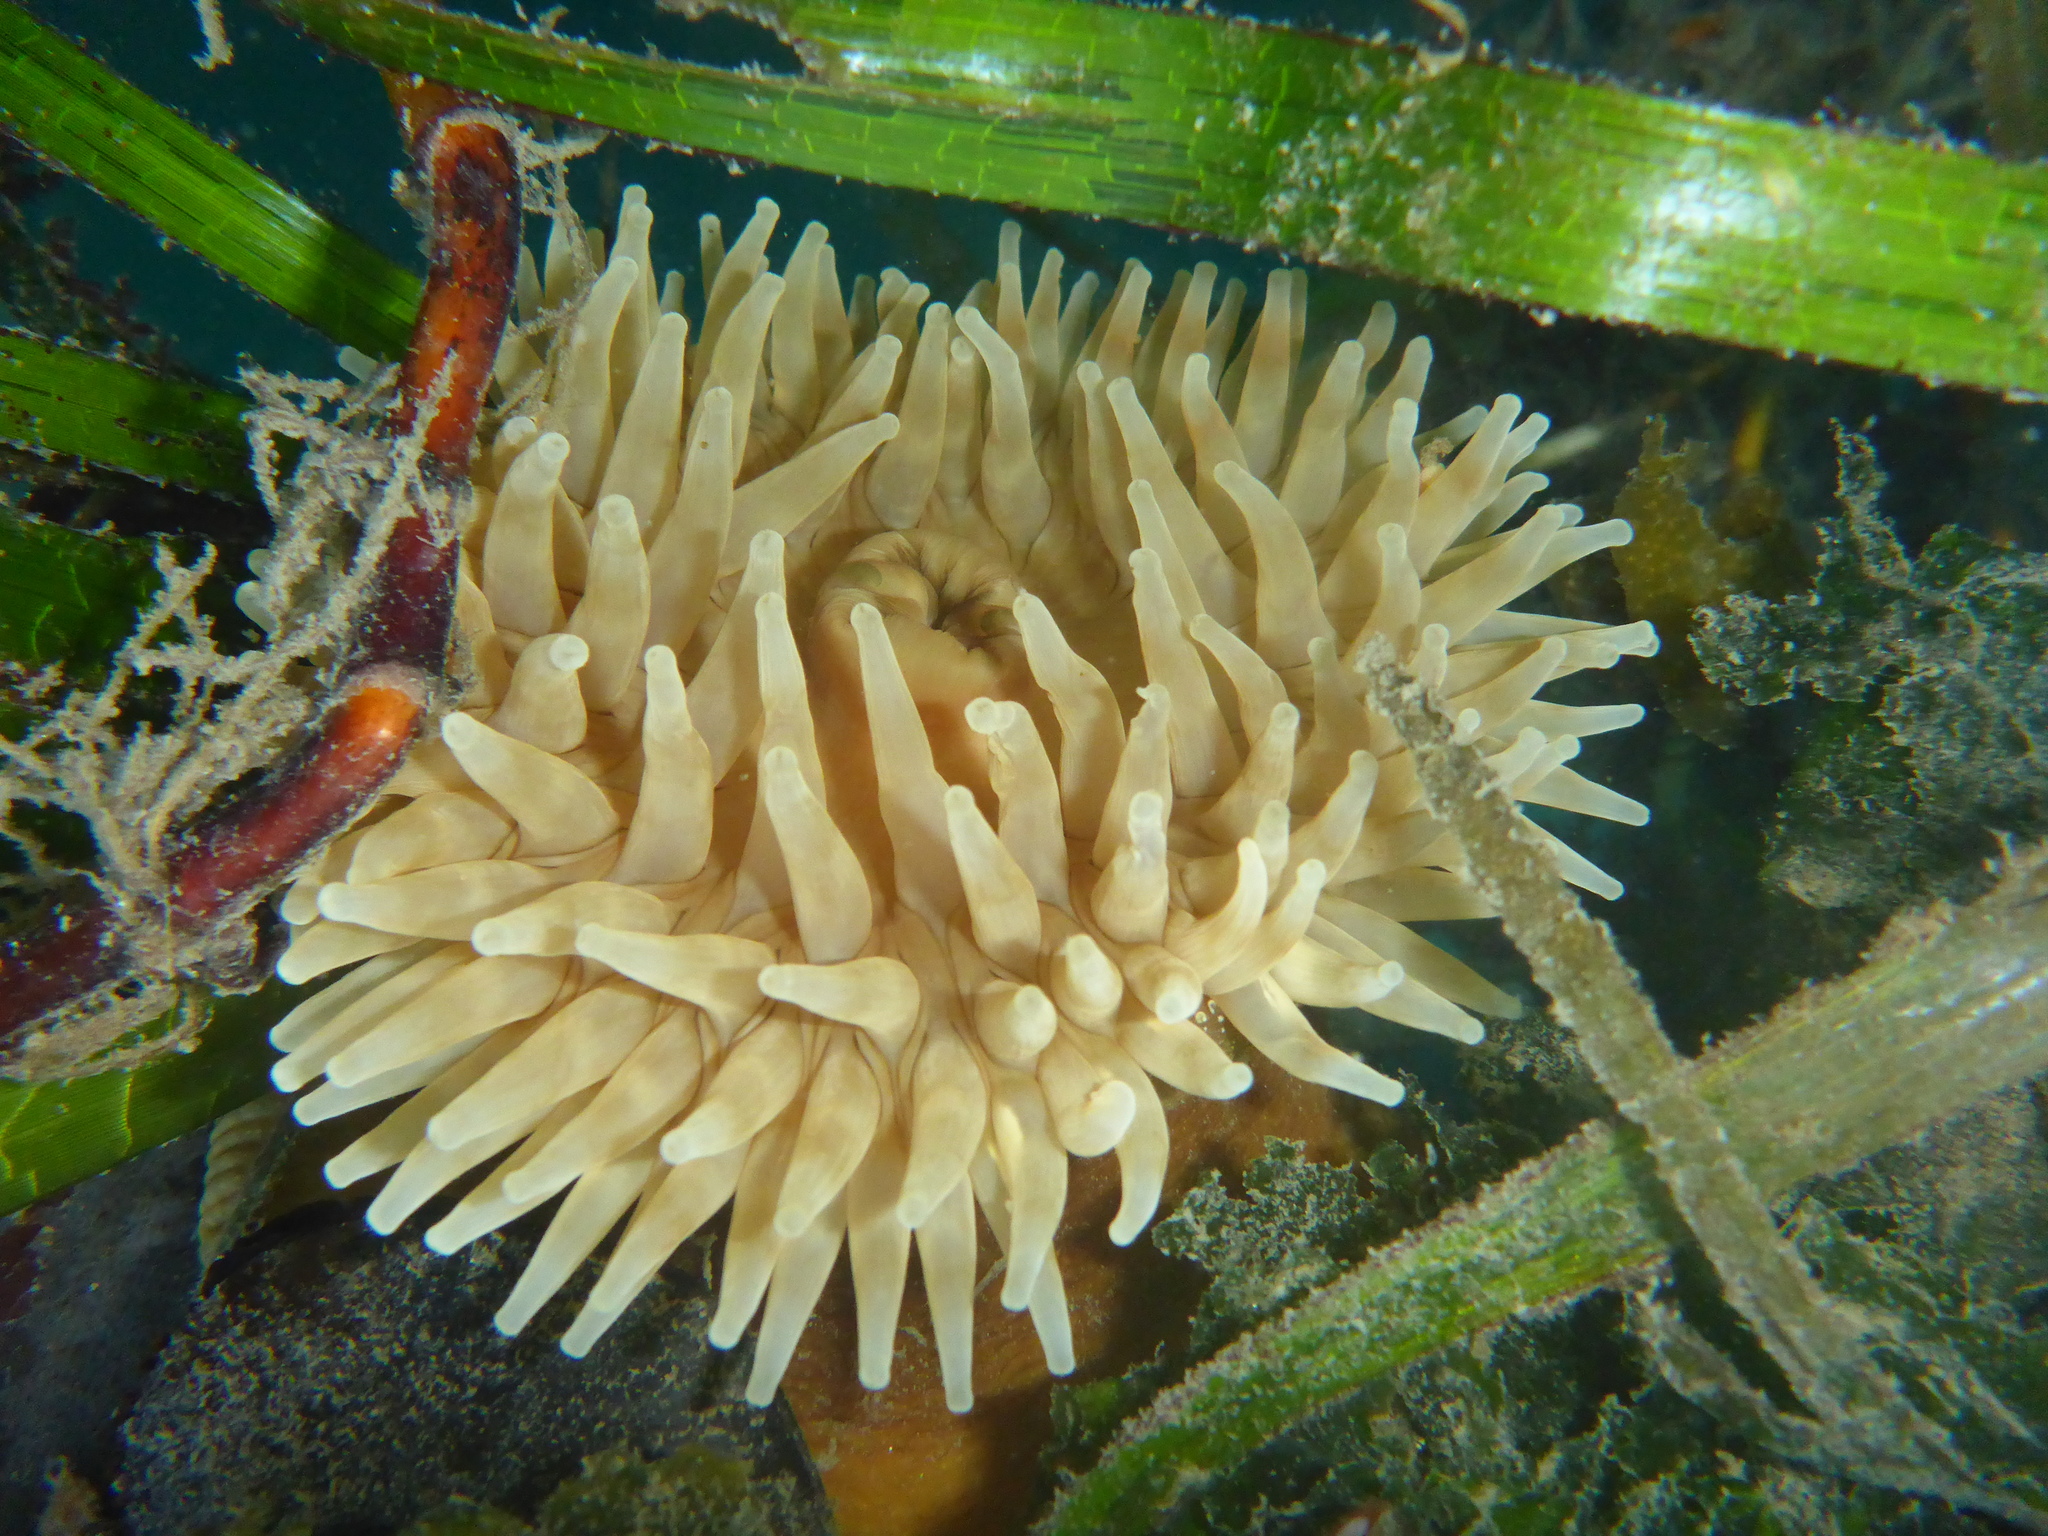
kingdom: Animalia
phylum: Cnidaria
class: Anthozoa
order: Actiniaria
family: Actiniidae
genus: Urticina
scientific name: Urticina grebelnyi
